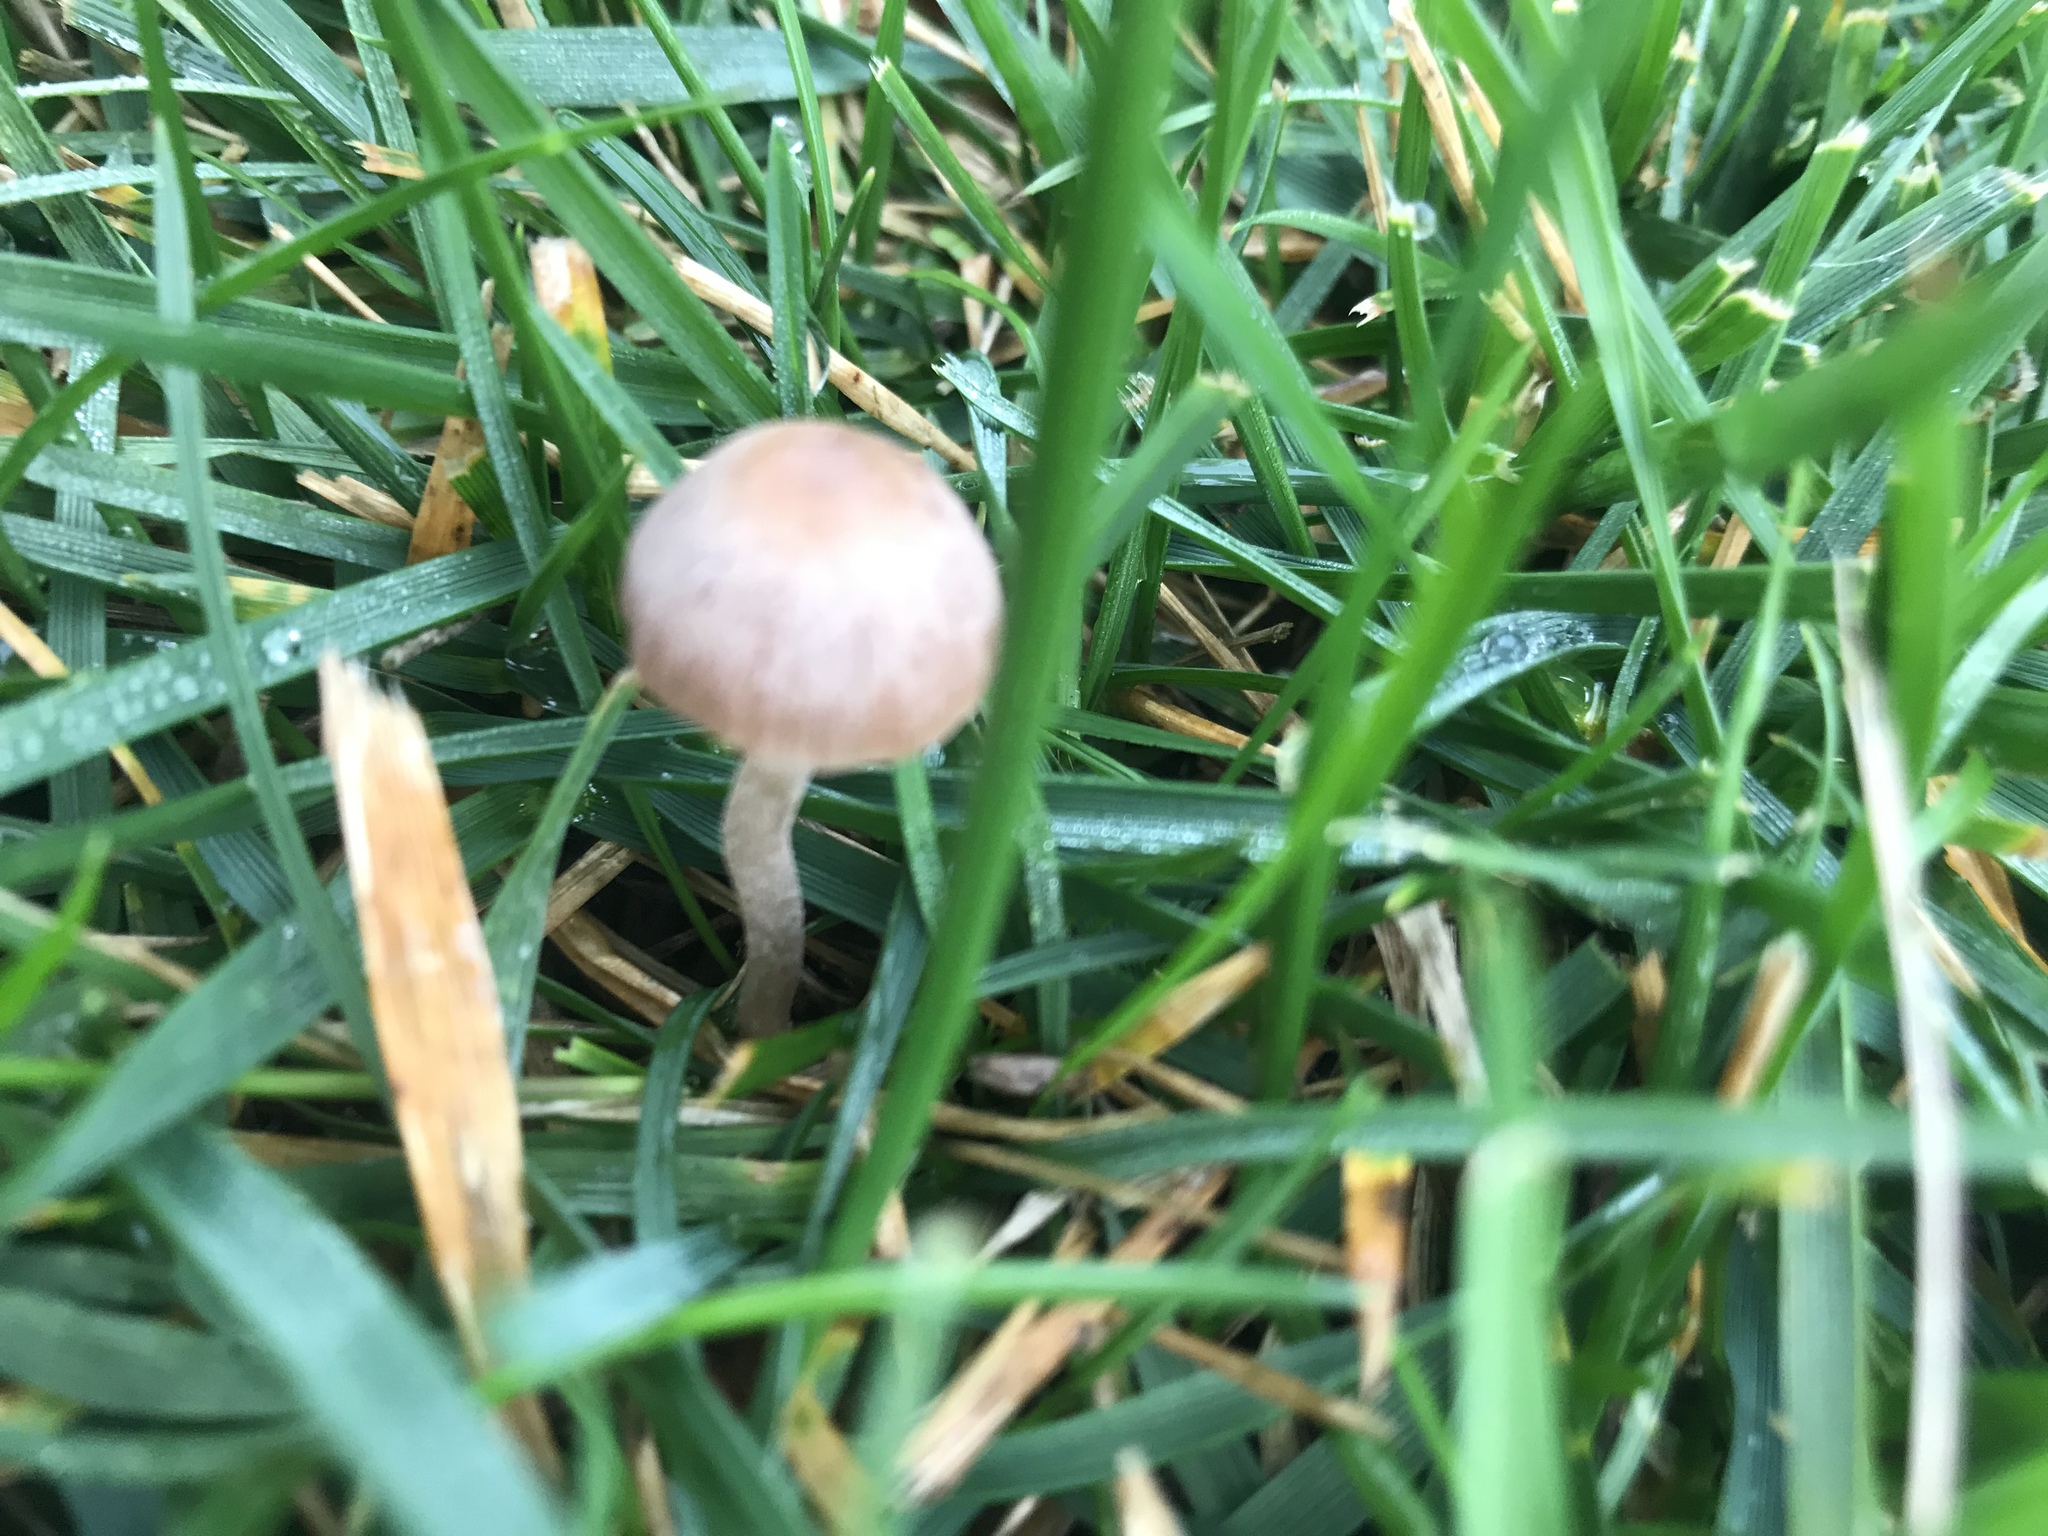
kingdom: Fungi
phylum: Basidiomycota
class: Agaricomycetes
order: Agaricales
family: Bolbitiaceae
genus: Panaeolina
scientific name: Panaeolina foenisecii
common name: Brown hay cap
